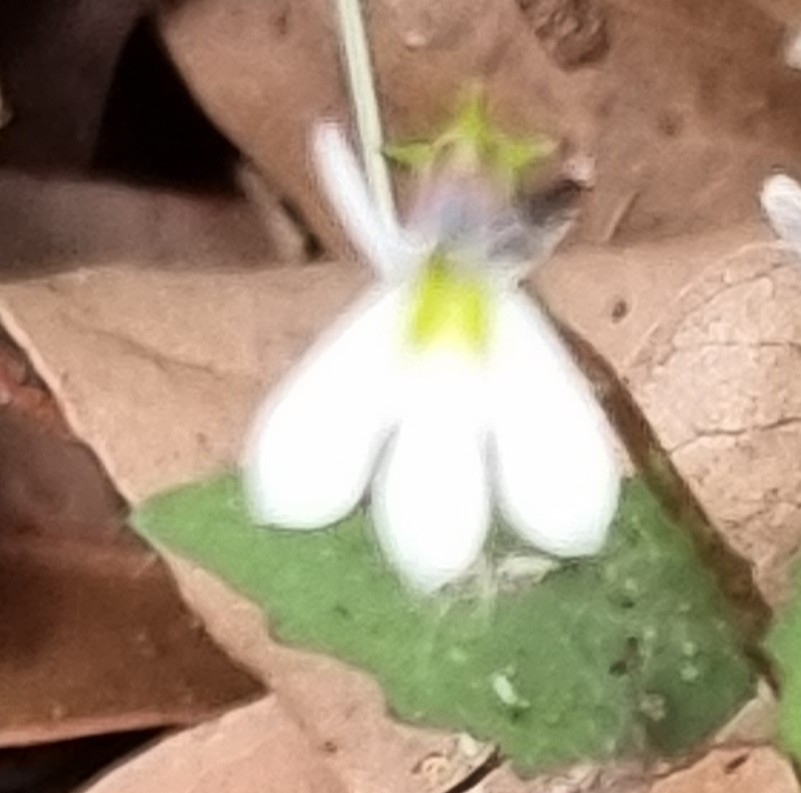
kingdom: Plantae
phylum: Tracheophyta
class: Magnoliopsida
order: Asterales
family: Campanulaceae
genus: Lobelia
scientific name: Lobelia purpurascens
